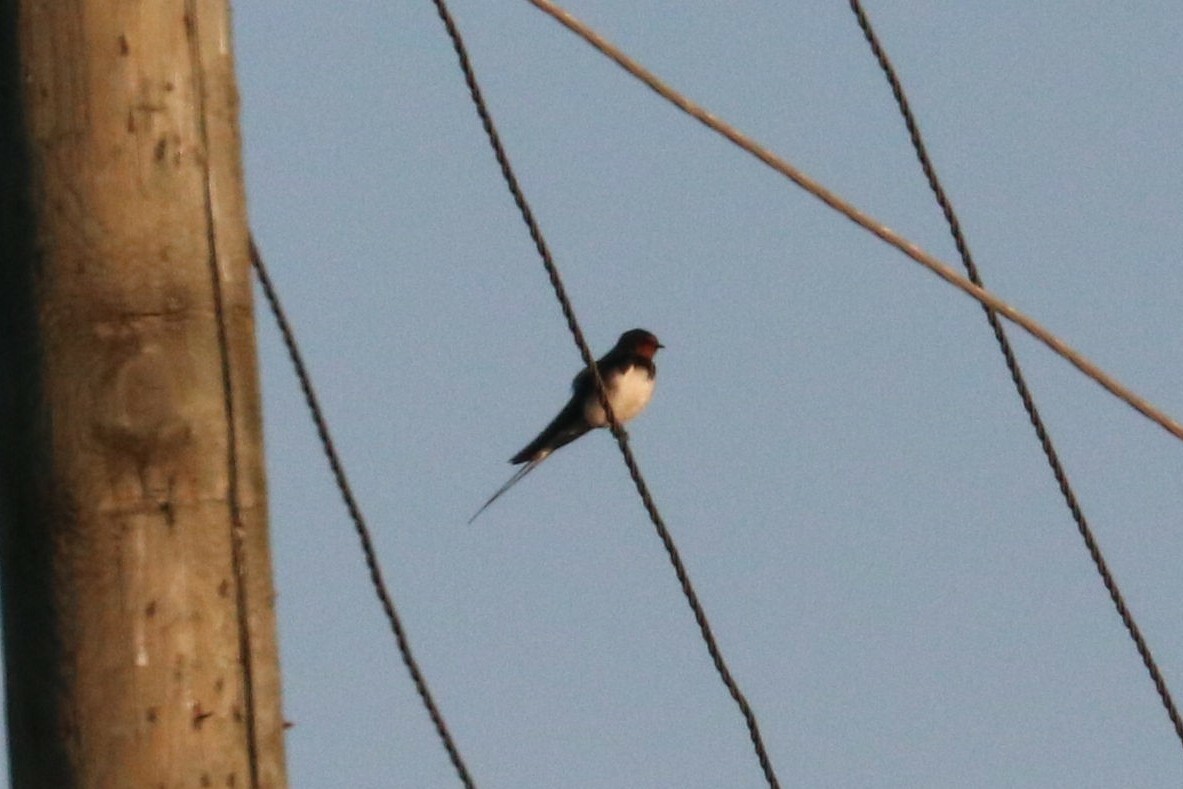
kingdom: Animalia
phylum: Chordata
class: Aves
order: Passeriformes
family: Hirundinidae
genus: Hirundo
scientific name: Hirundo rustica
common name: Barn swallow
